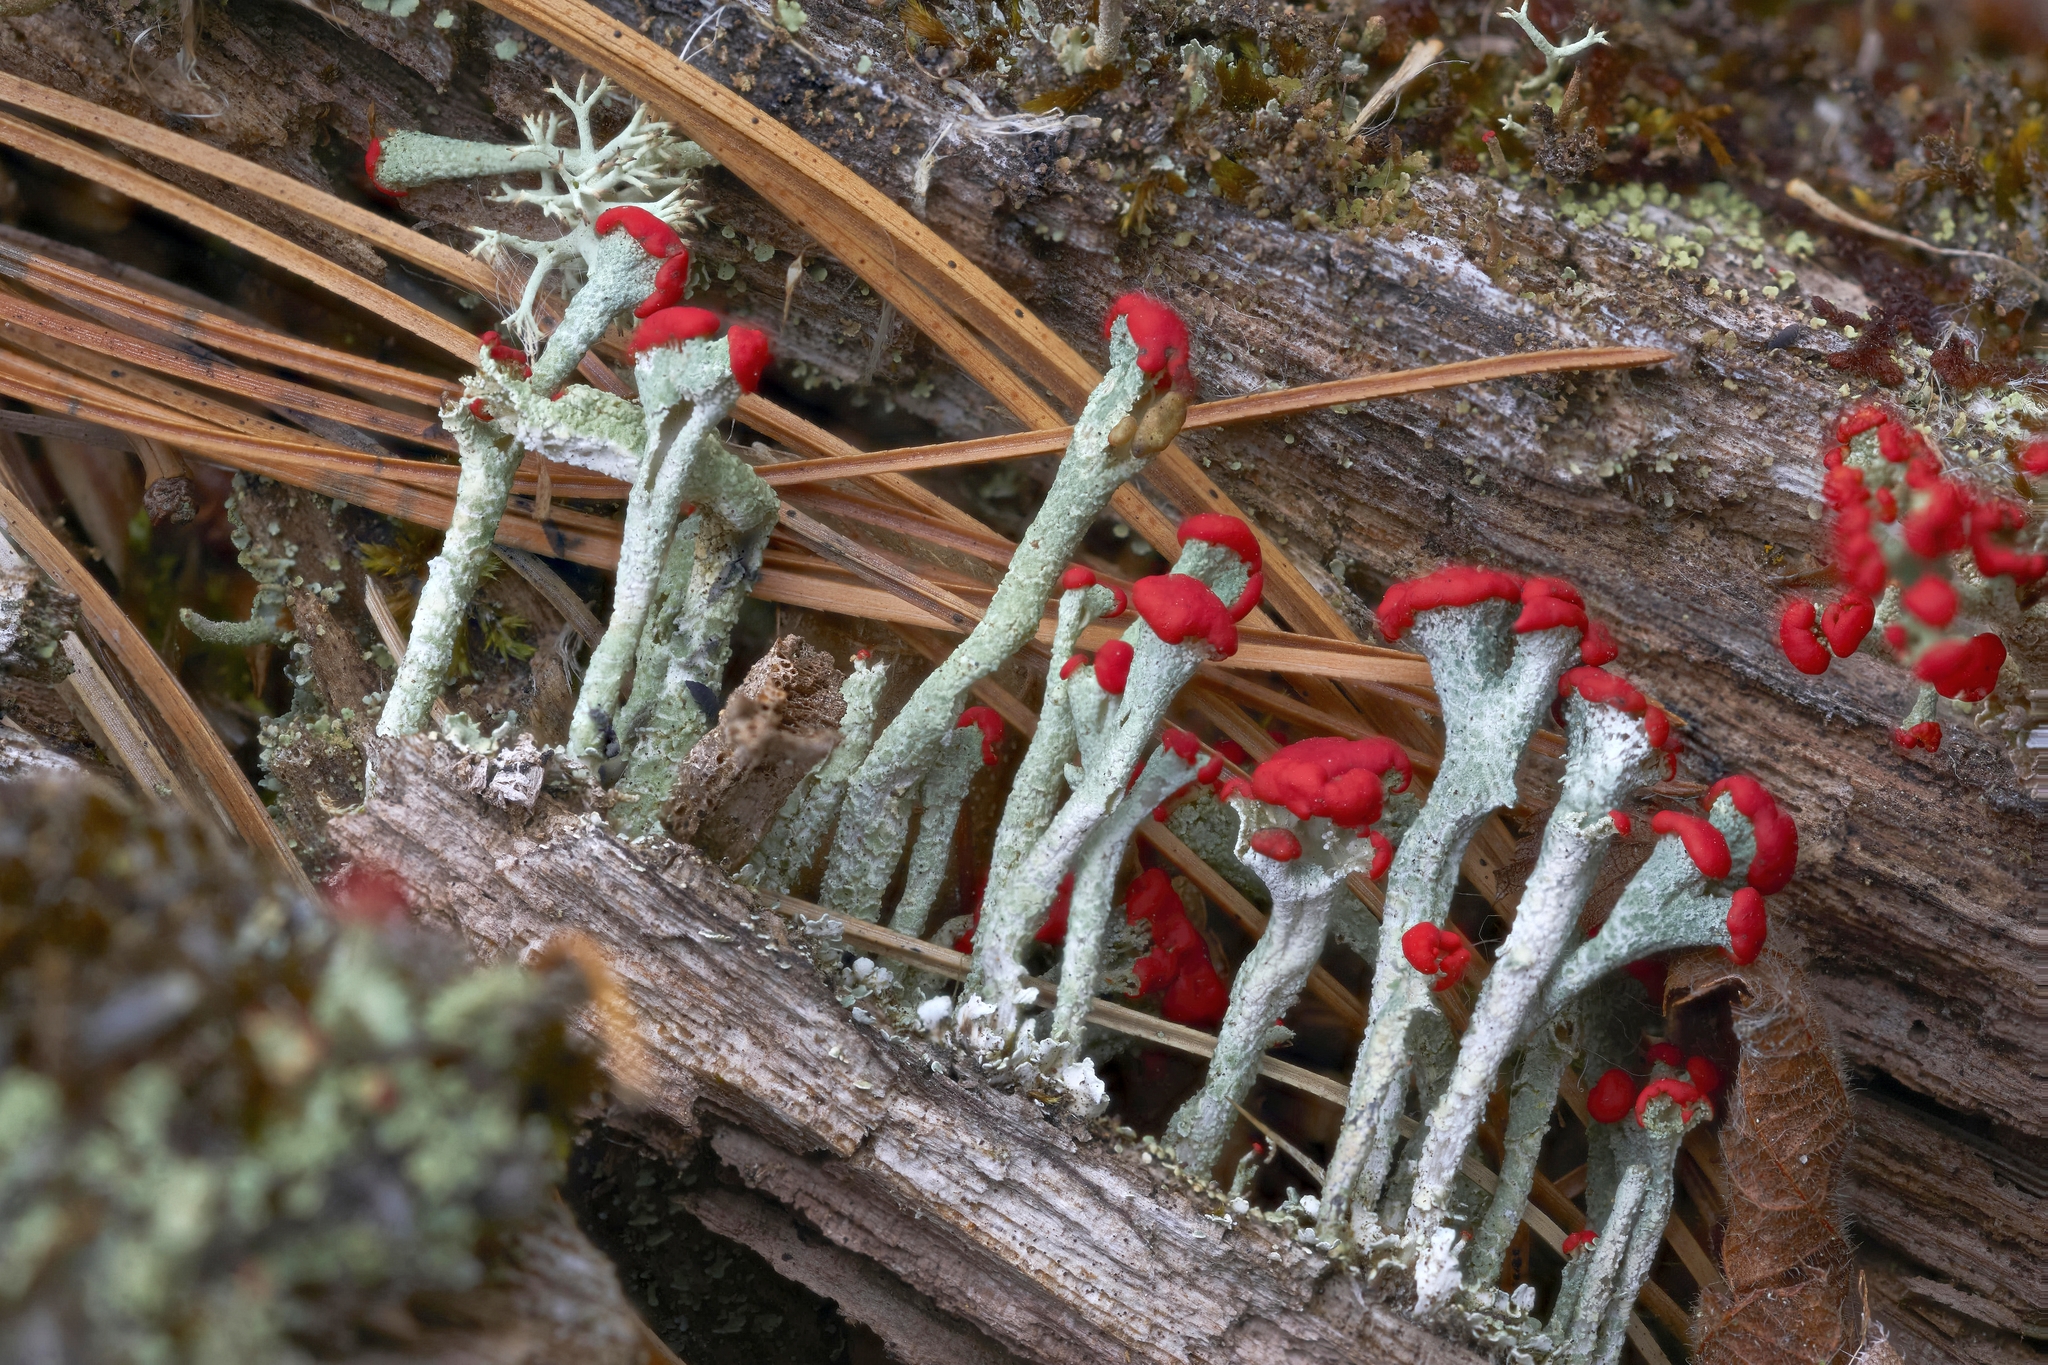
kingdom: Fungi
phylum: Ascomycota
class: Lecanoromycetes
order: Lecanorales
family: Cladoniaceae
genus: Cladonia
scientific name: Cladonia cristatella
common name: British soldier lichen
